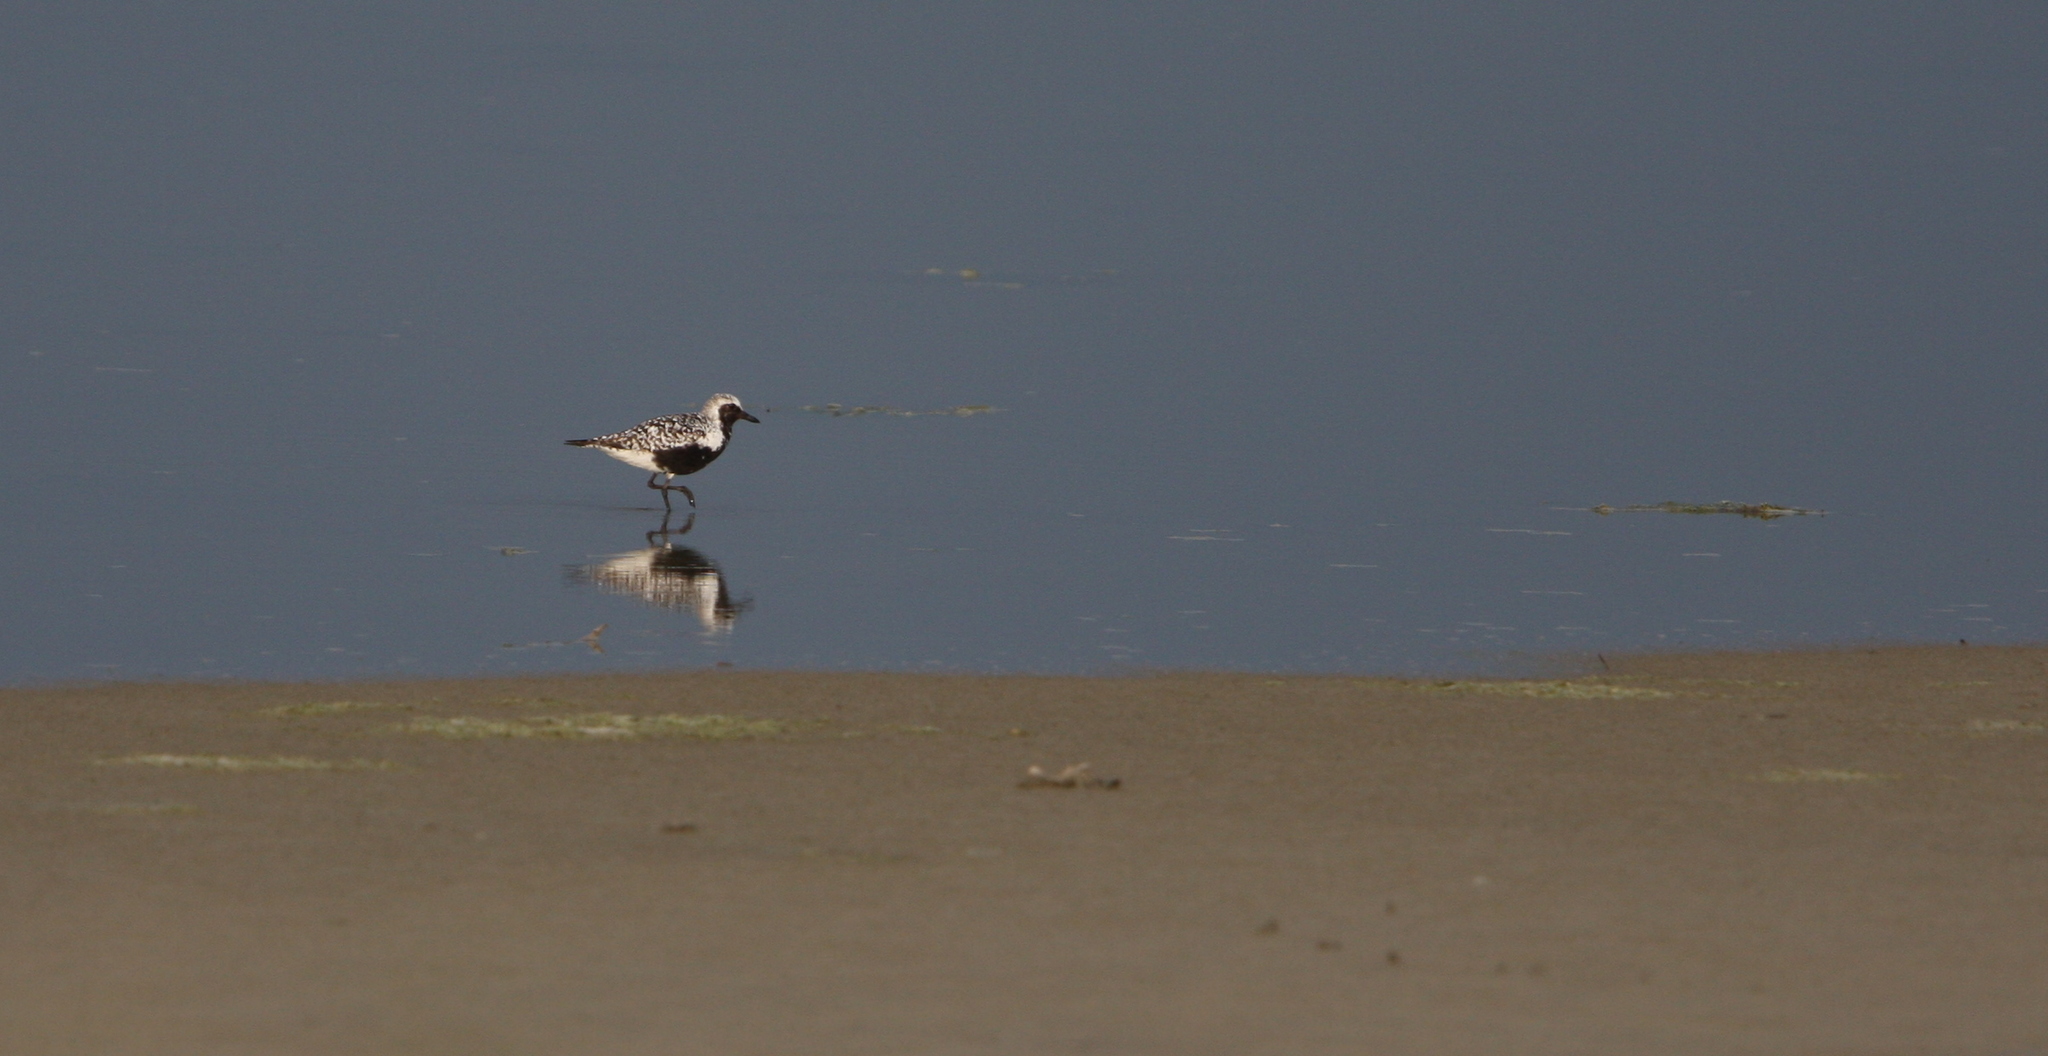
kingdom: Animalia
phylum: Chordata
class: Aves
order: Charadriiformes
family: Charadriidae
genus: Pluvialis
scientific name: Pluvialis squatarola
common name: Grey plover
